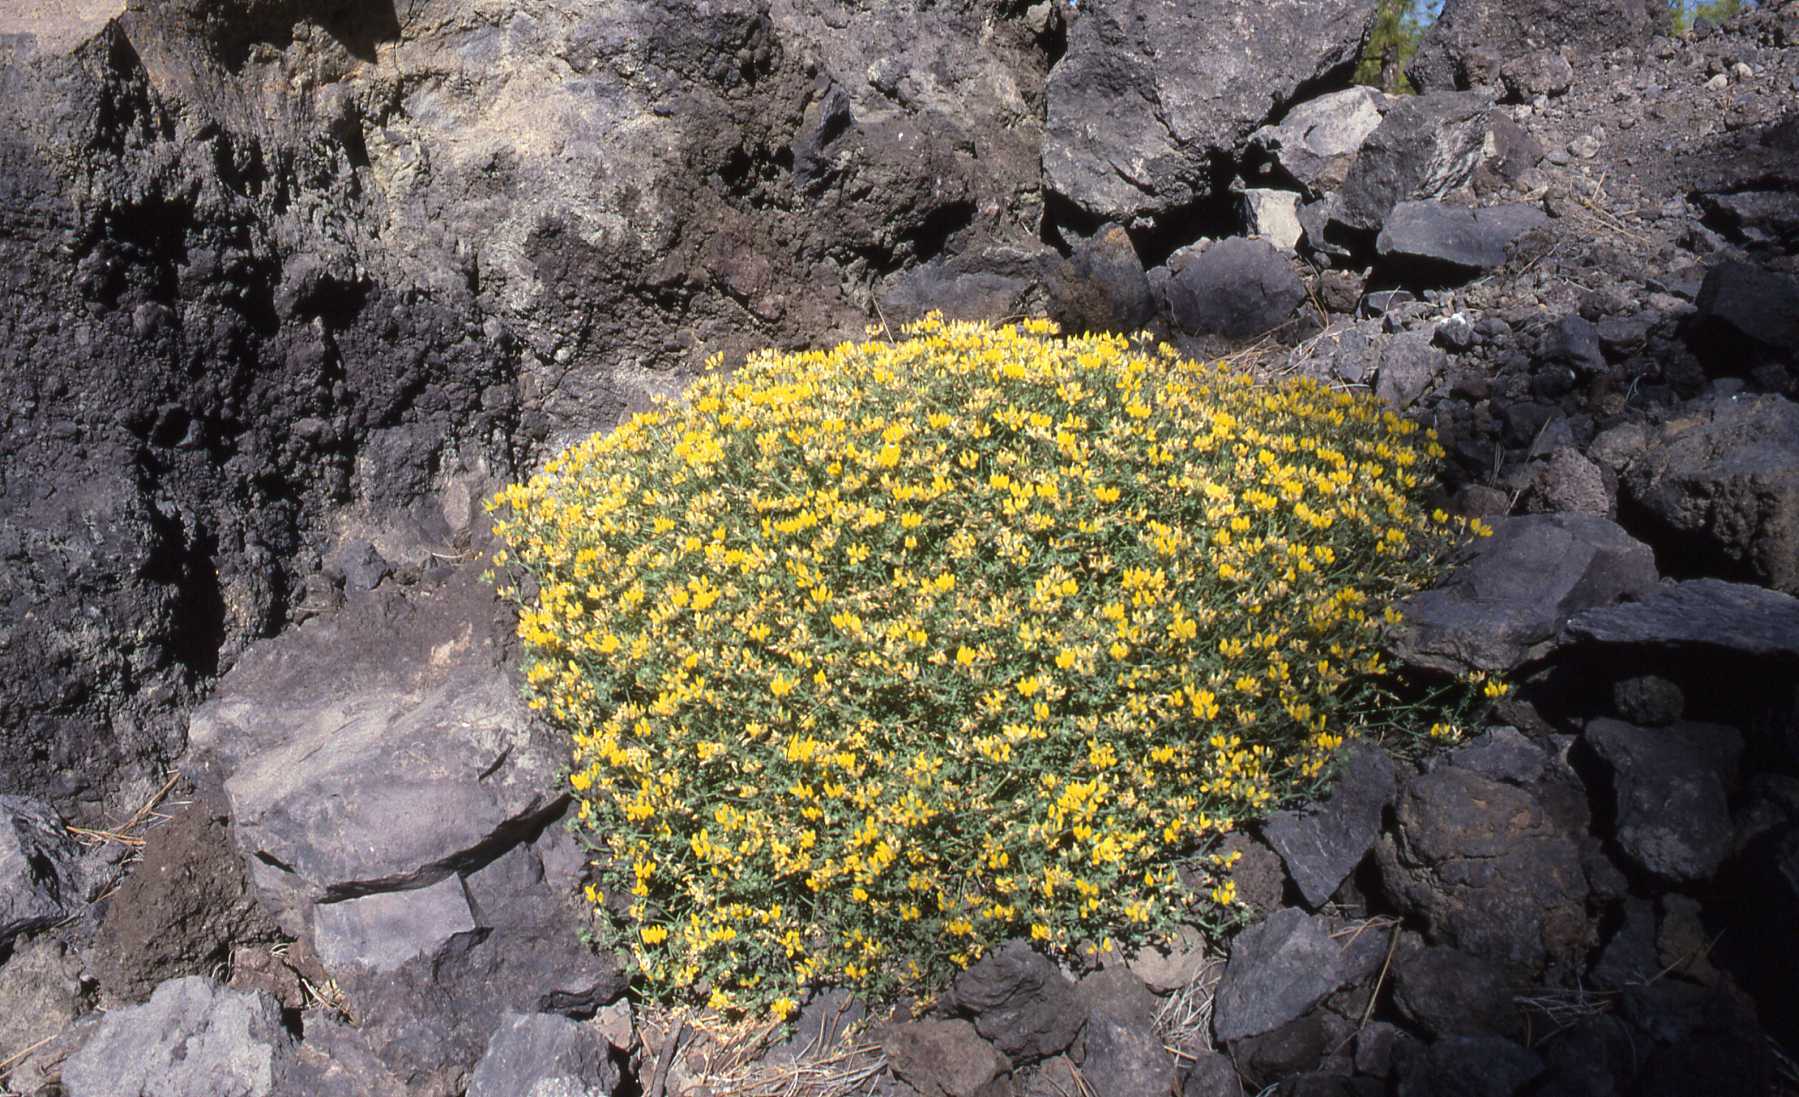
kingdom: Plantae
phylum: Tracheophyta
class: Magnoliopsida
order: Fabales
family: Fabaceae
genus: Lotus
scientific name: Lotus campylocladus
